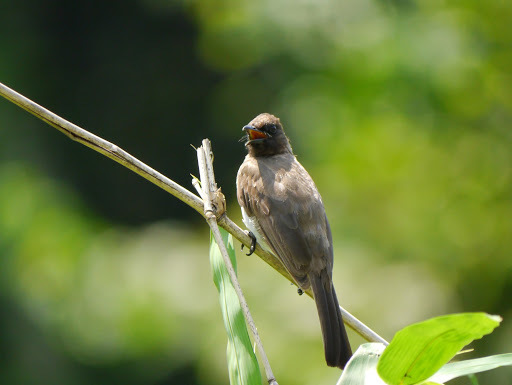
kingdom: Animalia
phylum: Chordata
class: Aves
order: Passeriformes
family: Pycnonotidae
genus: Pycnonotus
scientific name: Pycnonotus barbatus
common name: Common bulbul
